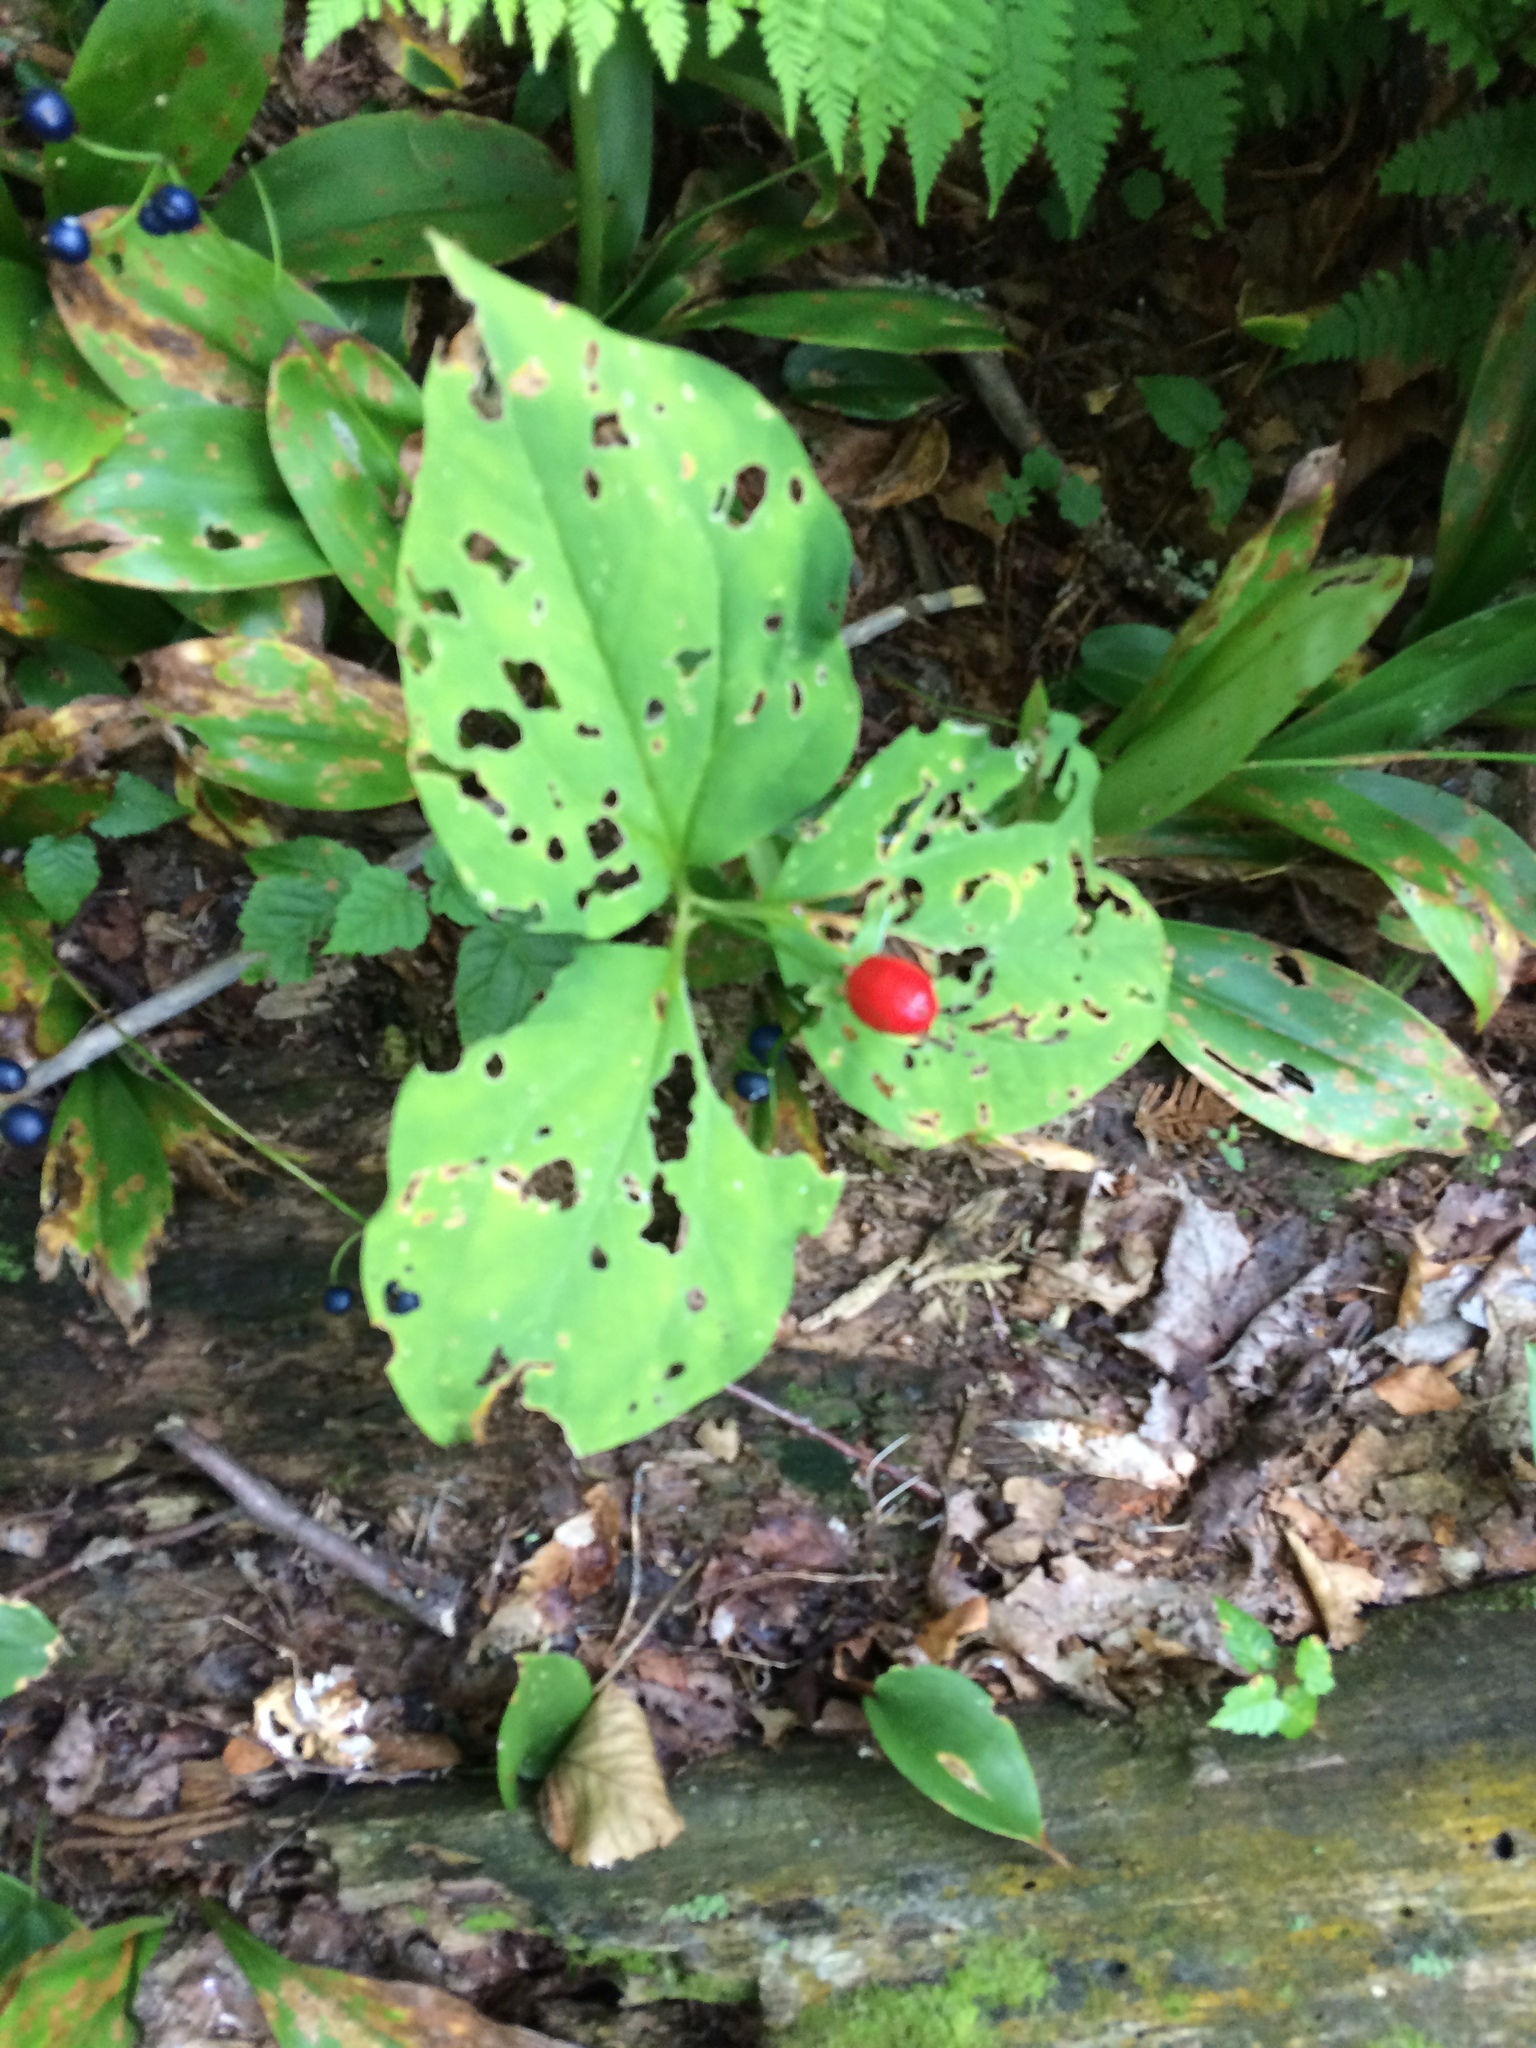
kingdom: Plantae
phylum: Tracheophyta
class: Liliopsida
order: Liliales
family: Melanthiaceae
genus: Trillium
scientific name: Trillium undulatum
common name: Paint trillium
